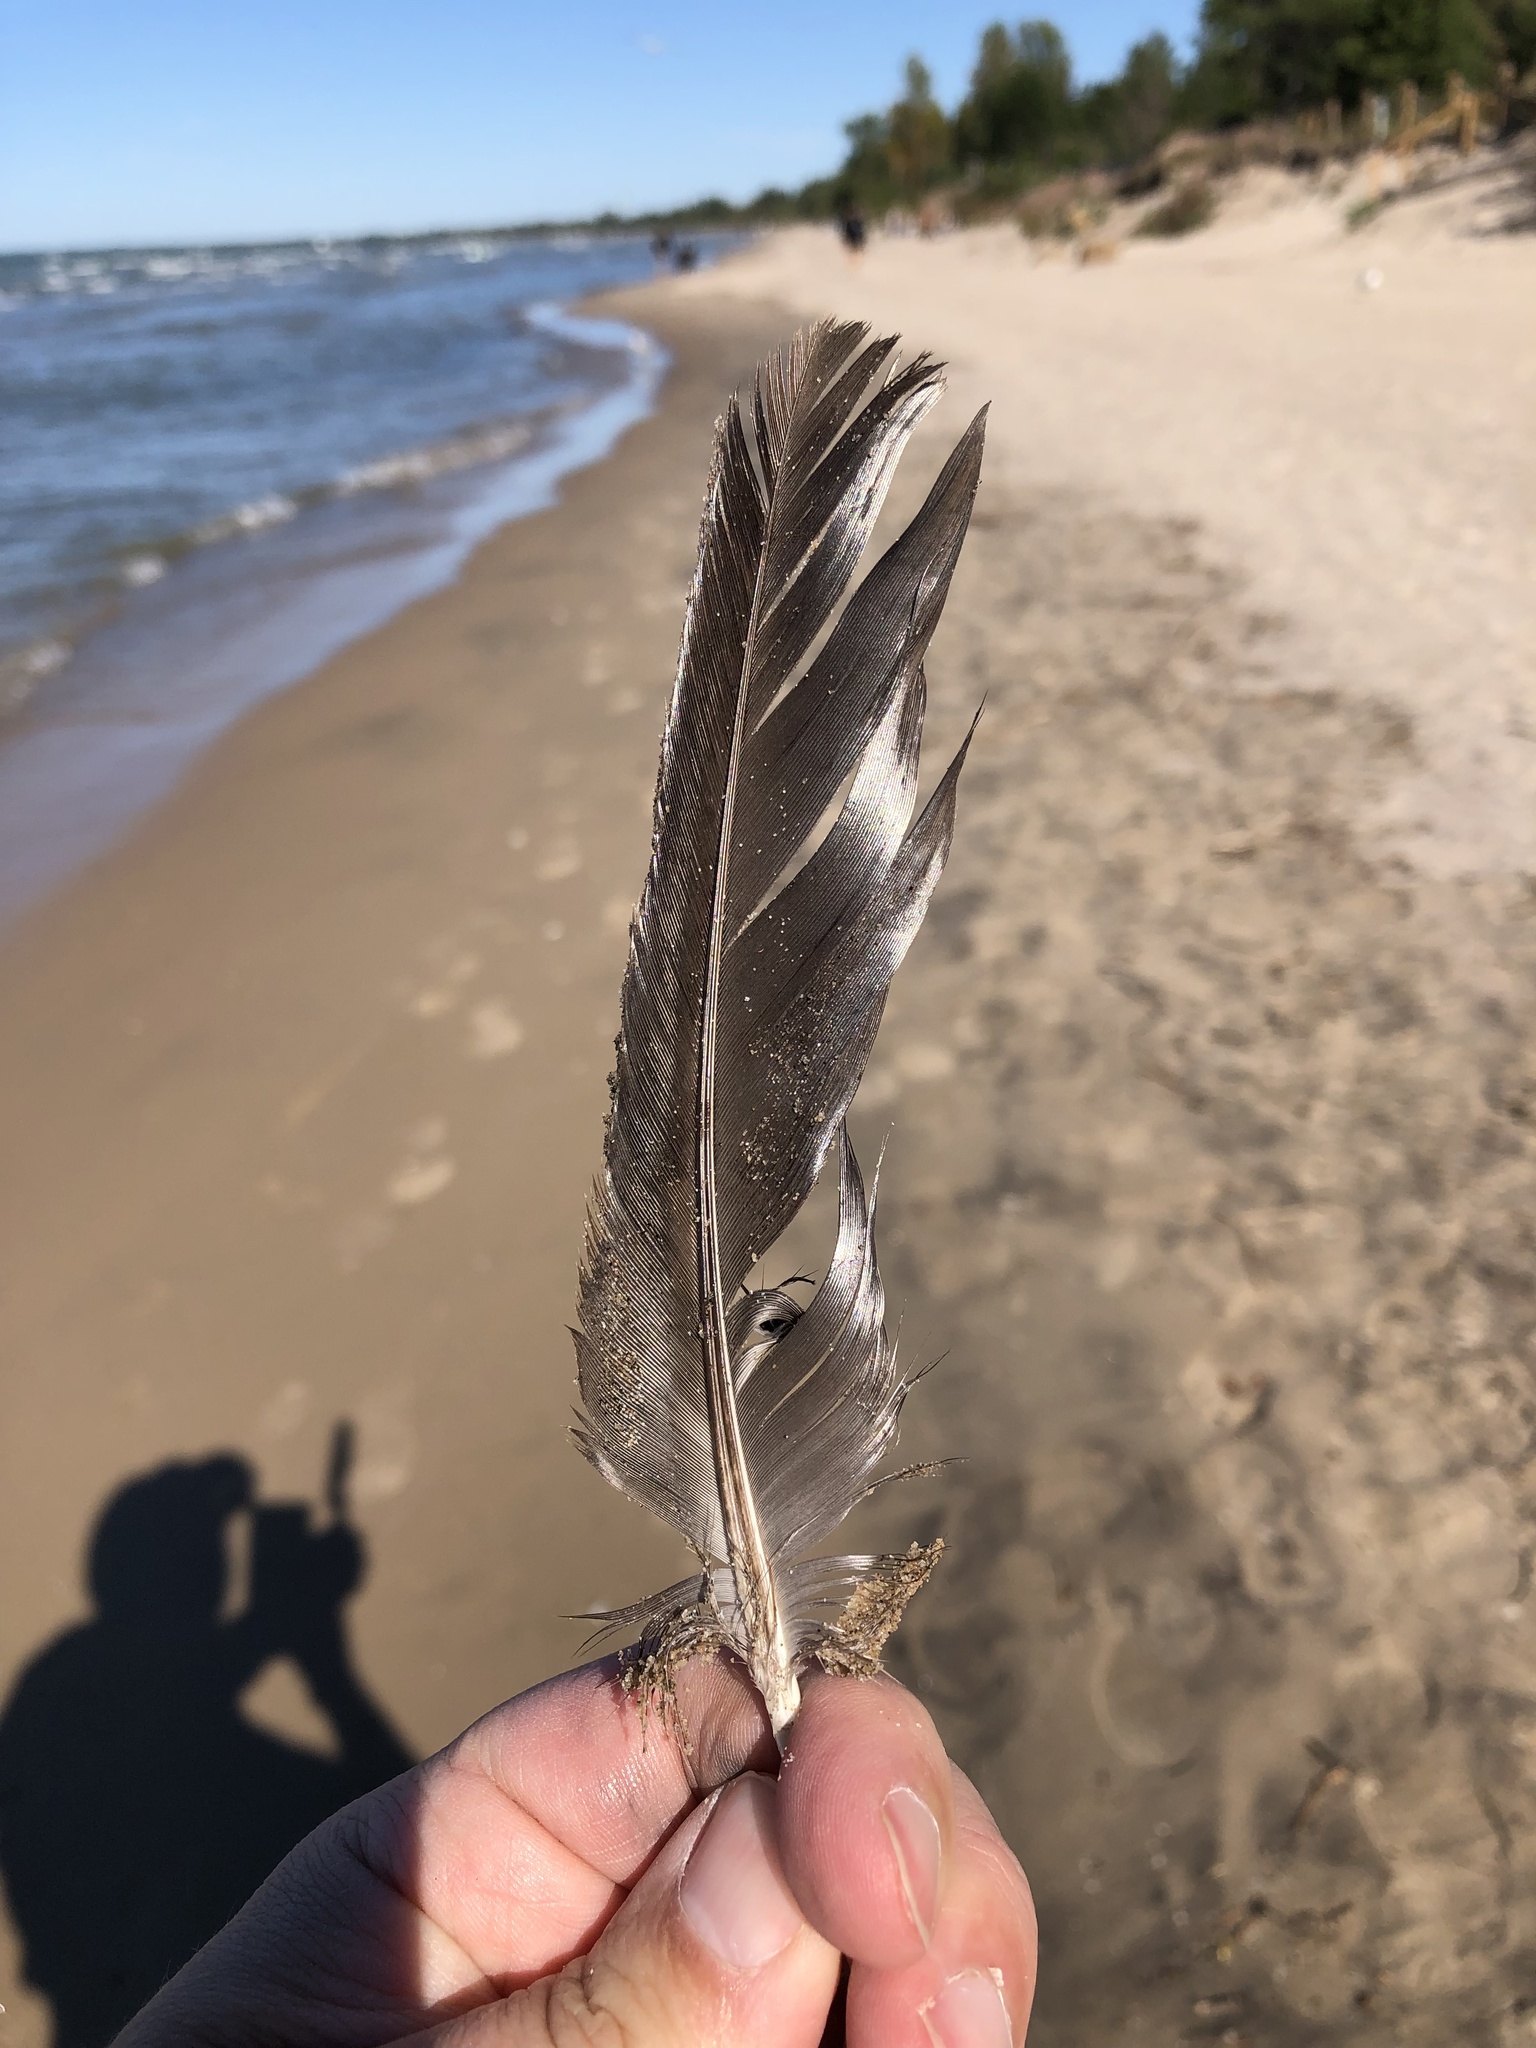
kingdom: Animalia
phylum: Chordata
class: Aves
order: Columbiformes
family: Columbidae
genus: Columba
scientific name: Columba livia
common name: Rock pigeon
